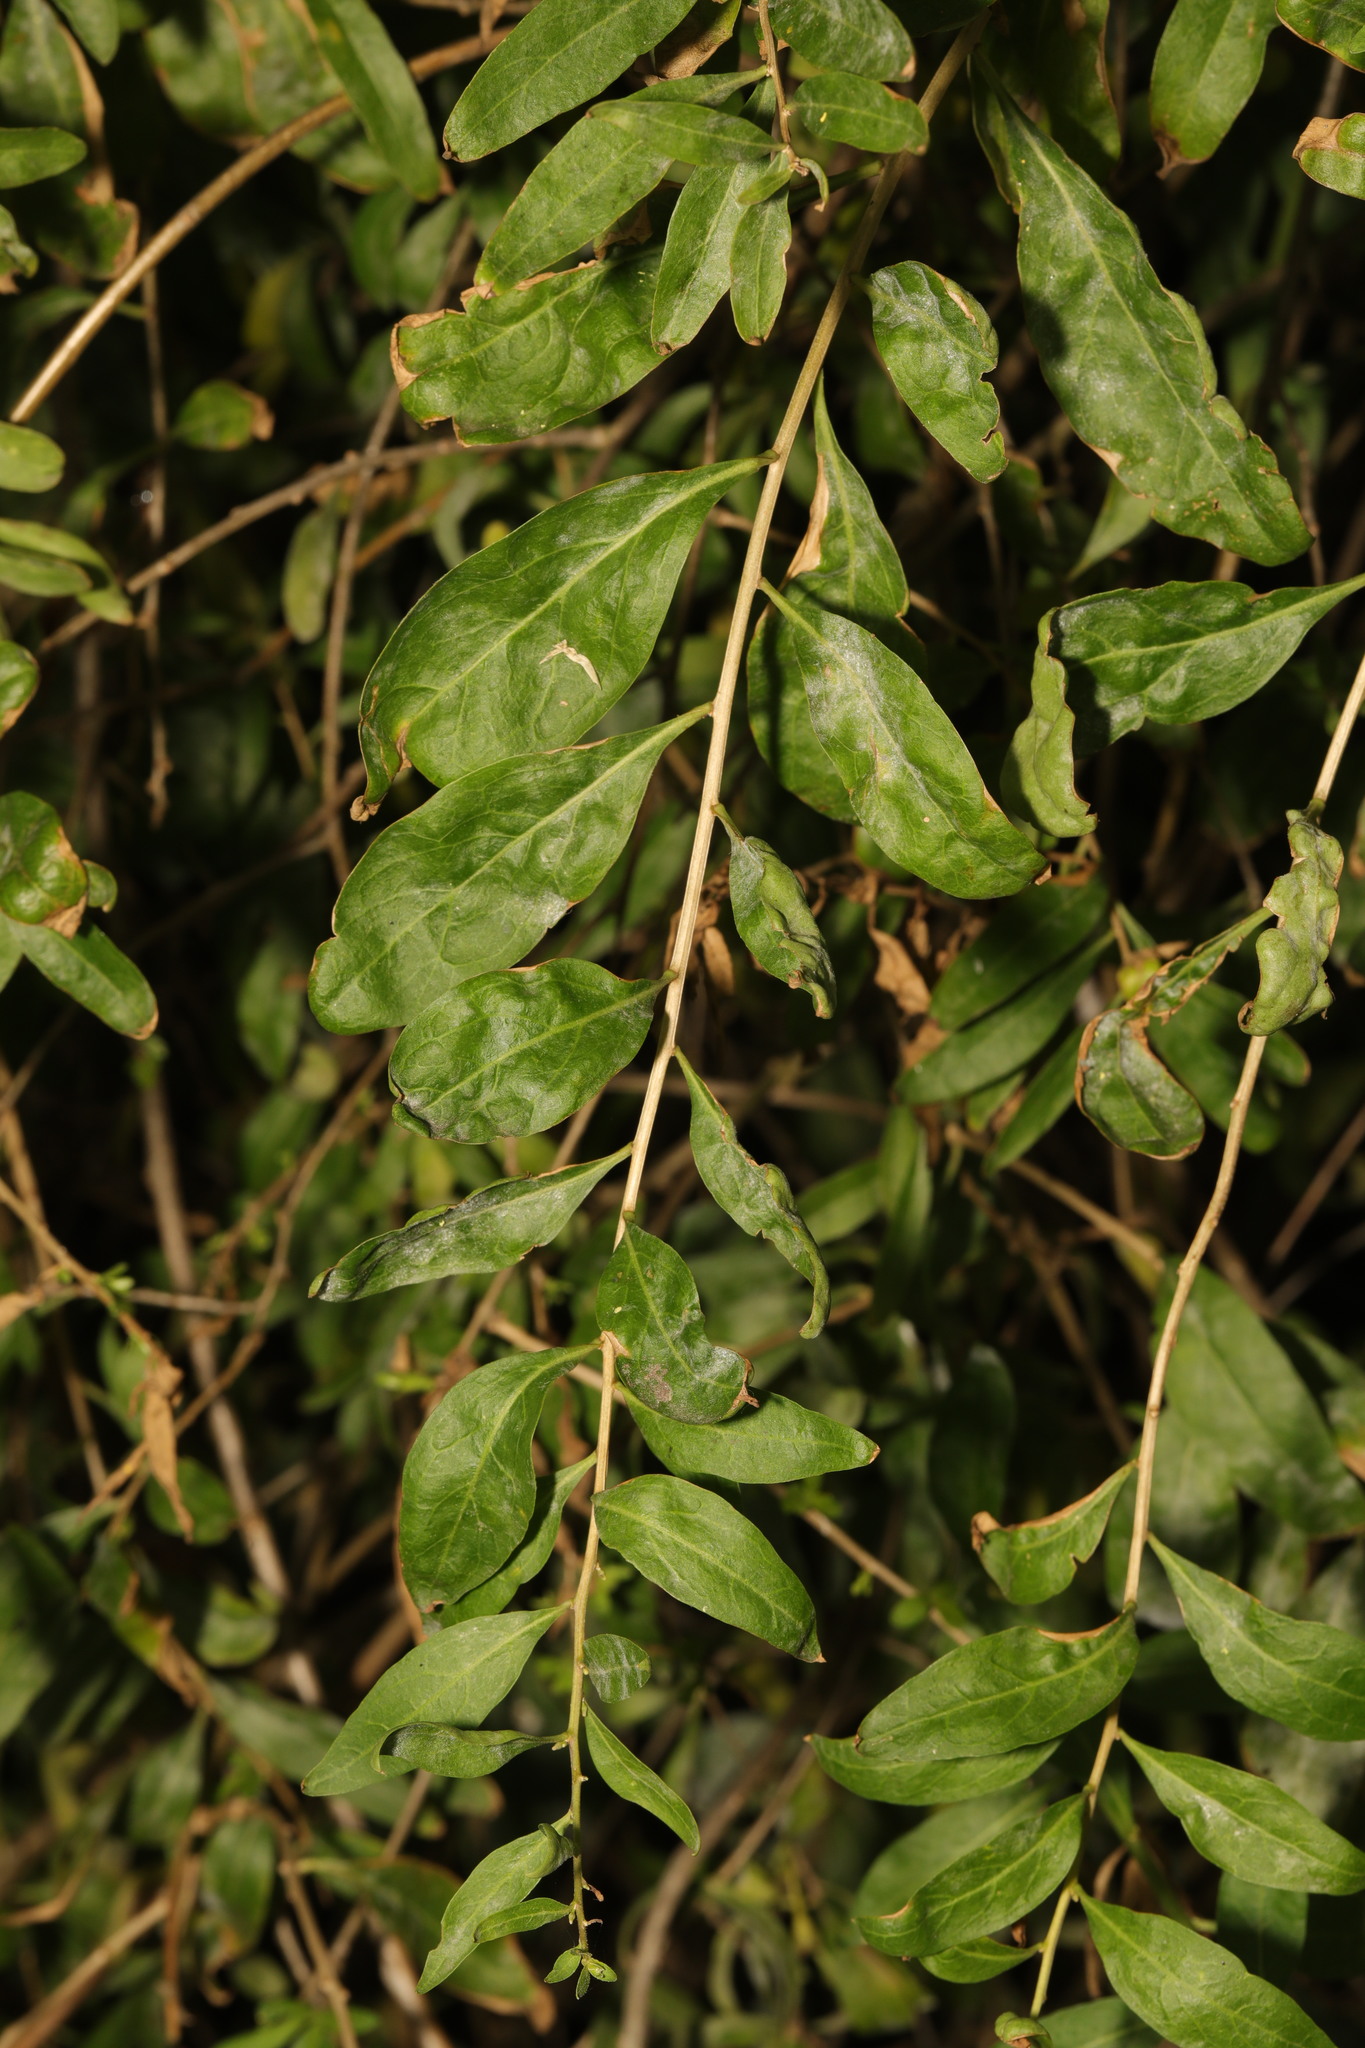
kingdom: Plantae
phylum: Tracheophyta
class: Magnoliopsida
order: Solanales
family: Solanaceae
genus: Lycium
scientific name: Lycium barbarum
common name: Duke of argyll's teaplant
